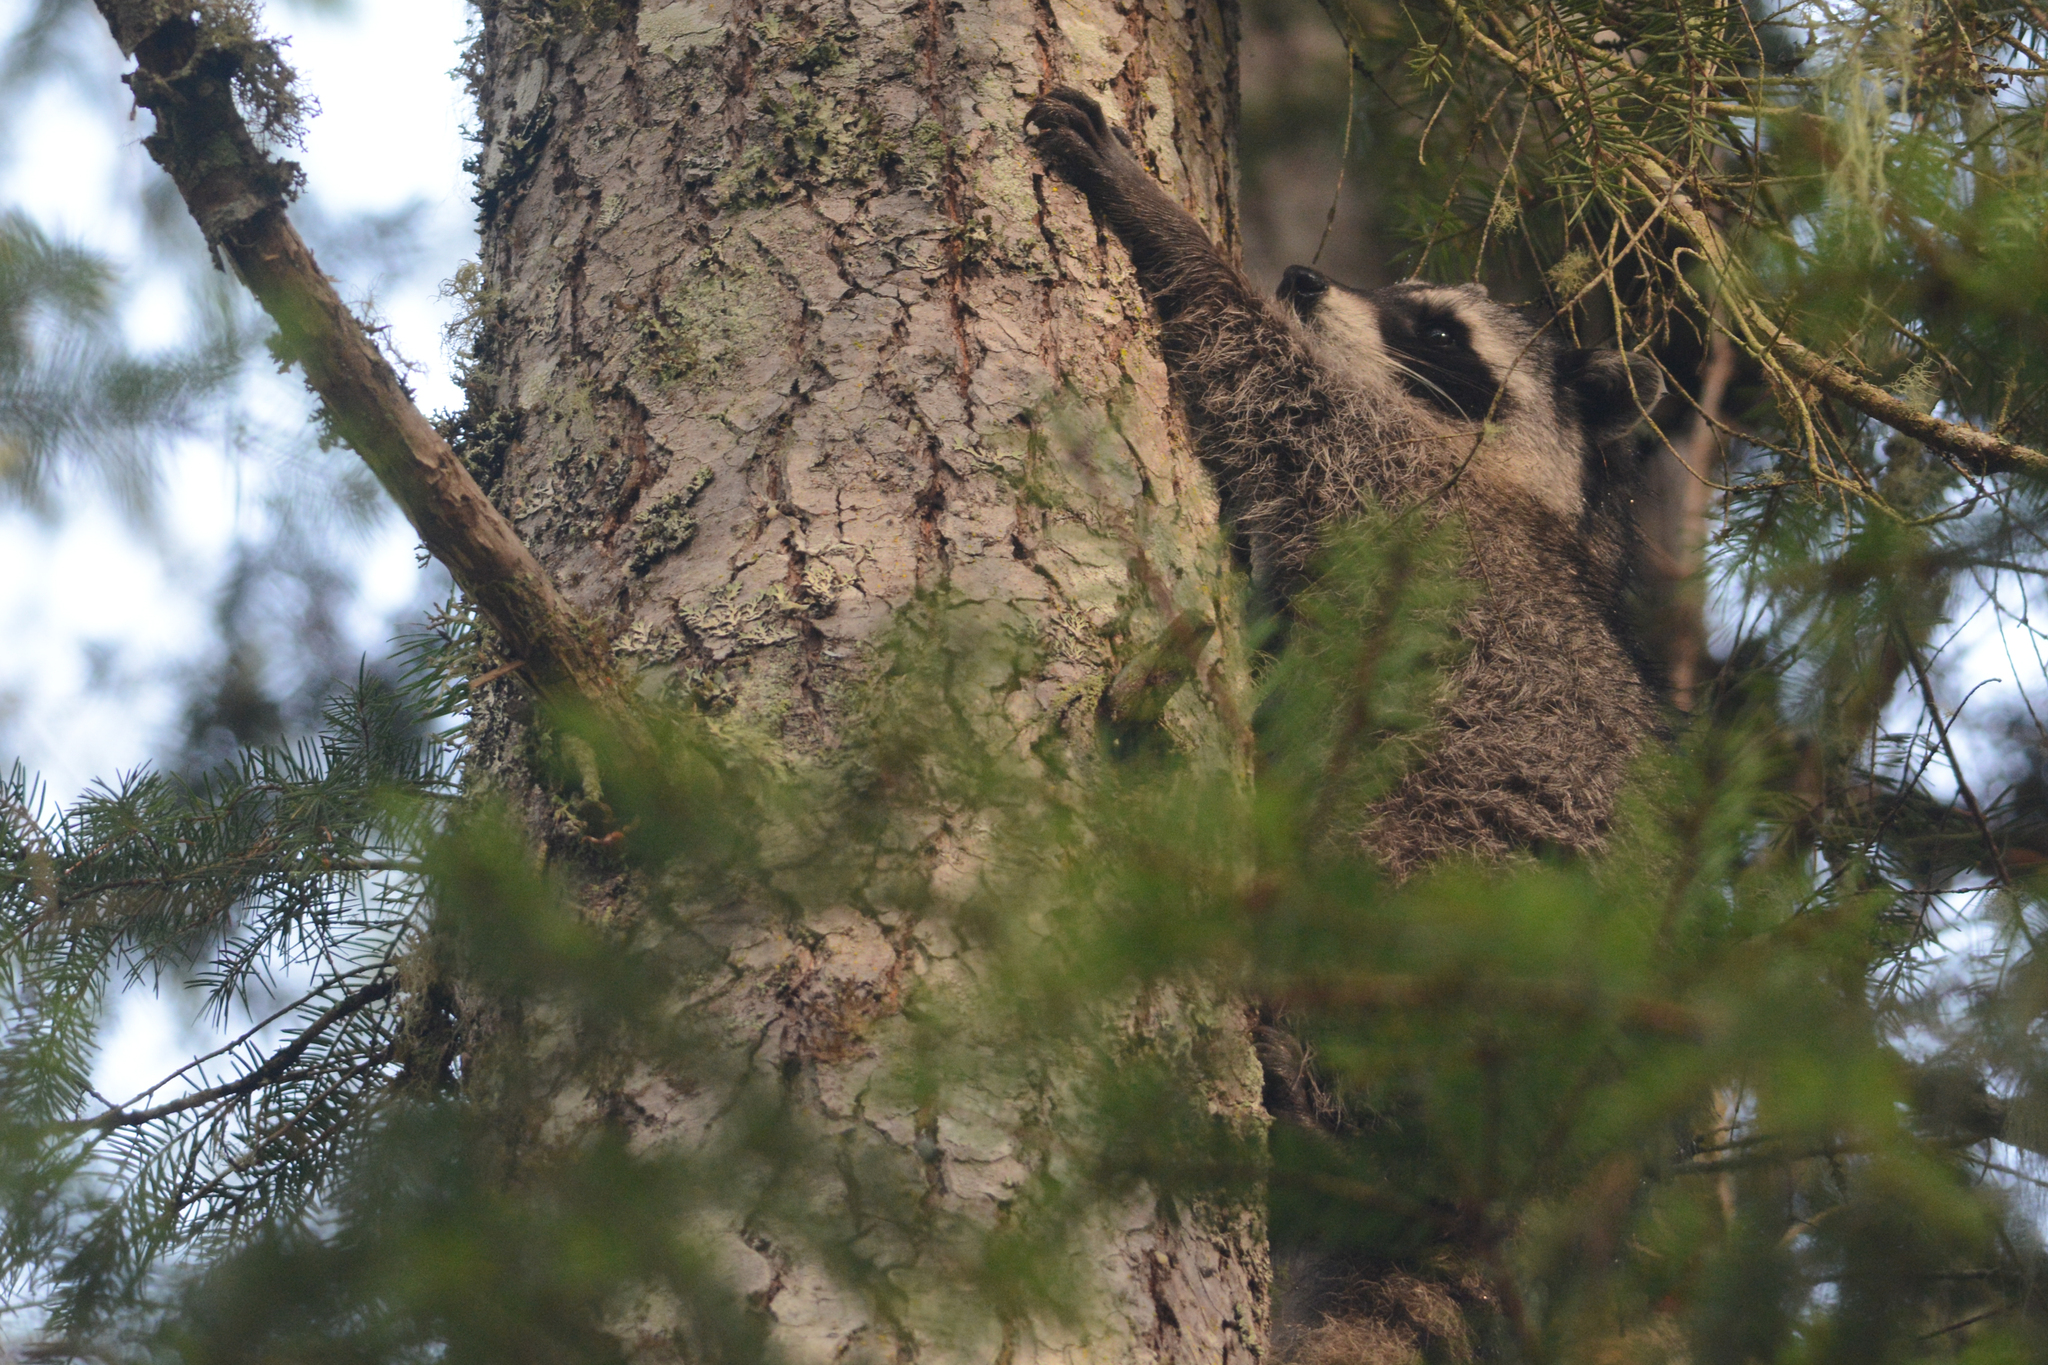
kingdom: Animalia
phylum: Chordata
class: Mammalia
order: Carnivora
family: Procyonidae
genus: Procyon
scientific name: Procyon lotor
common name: Raccoon
